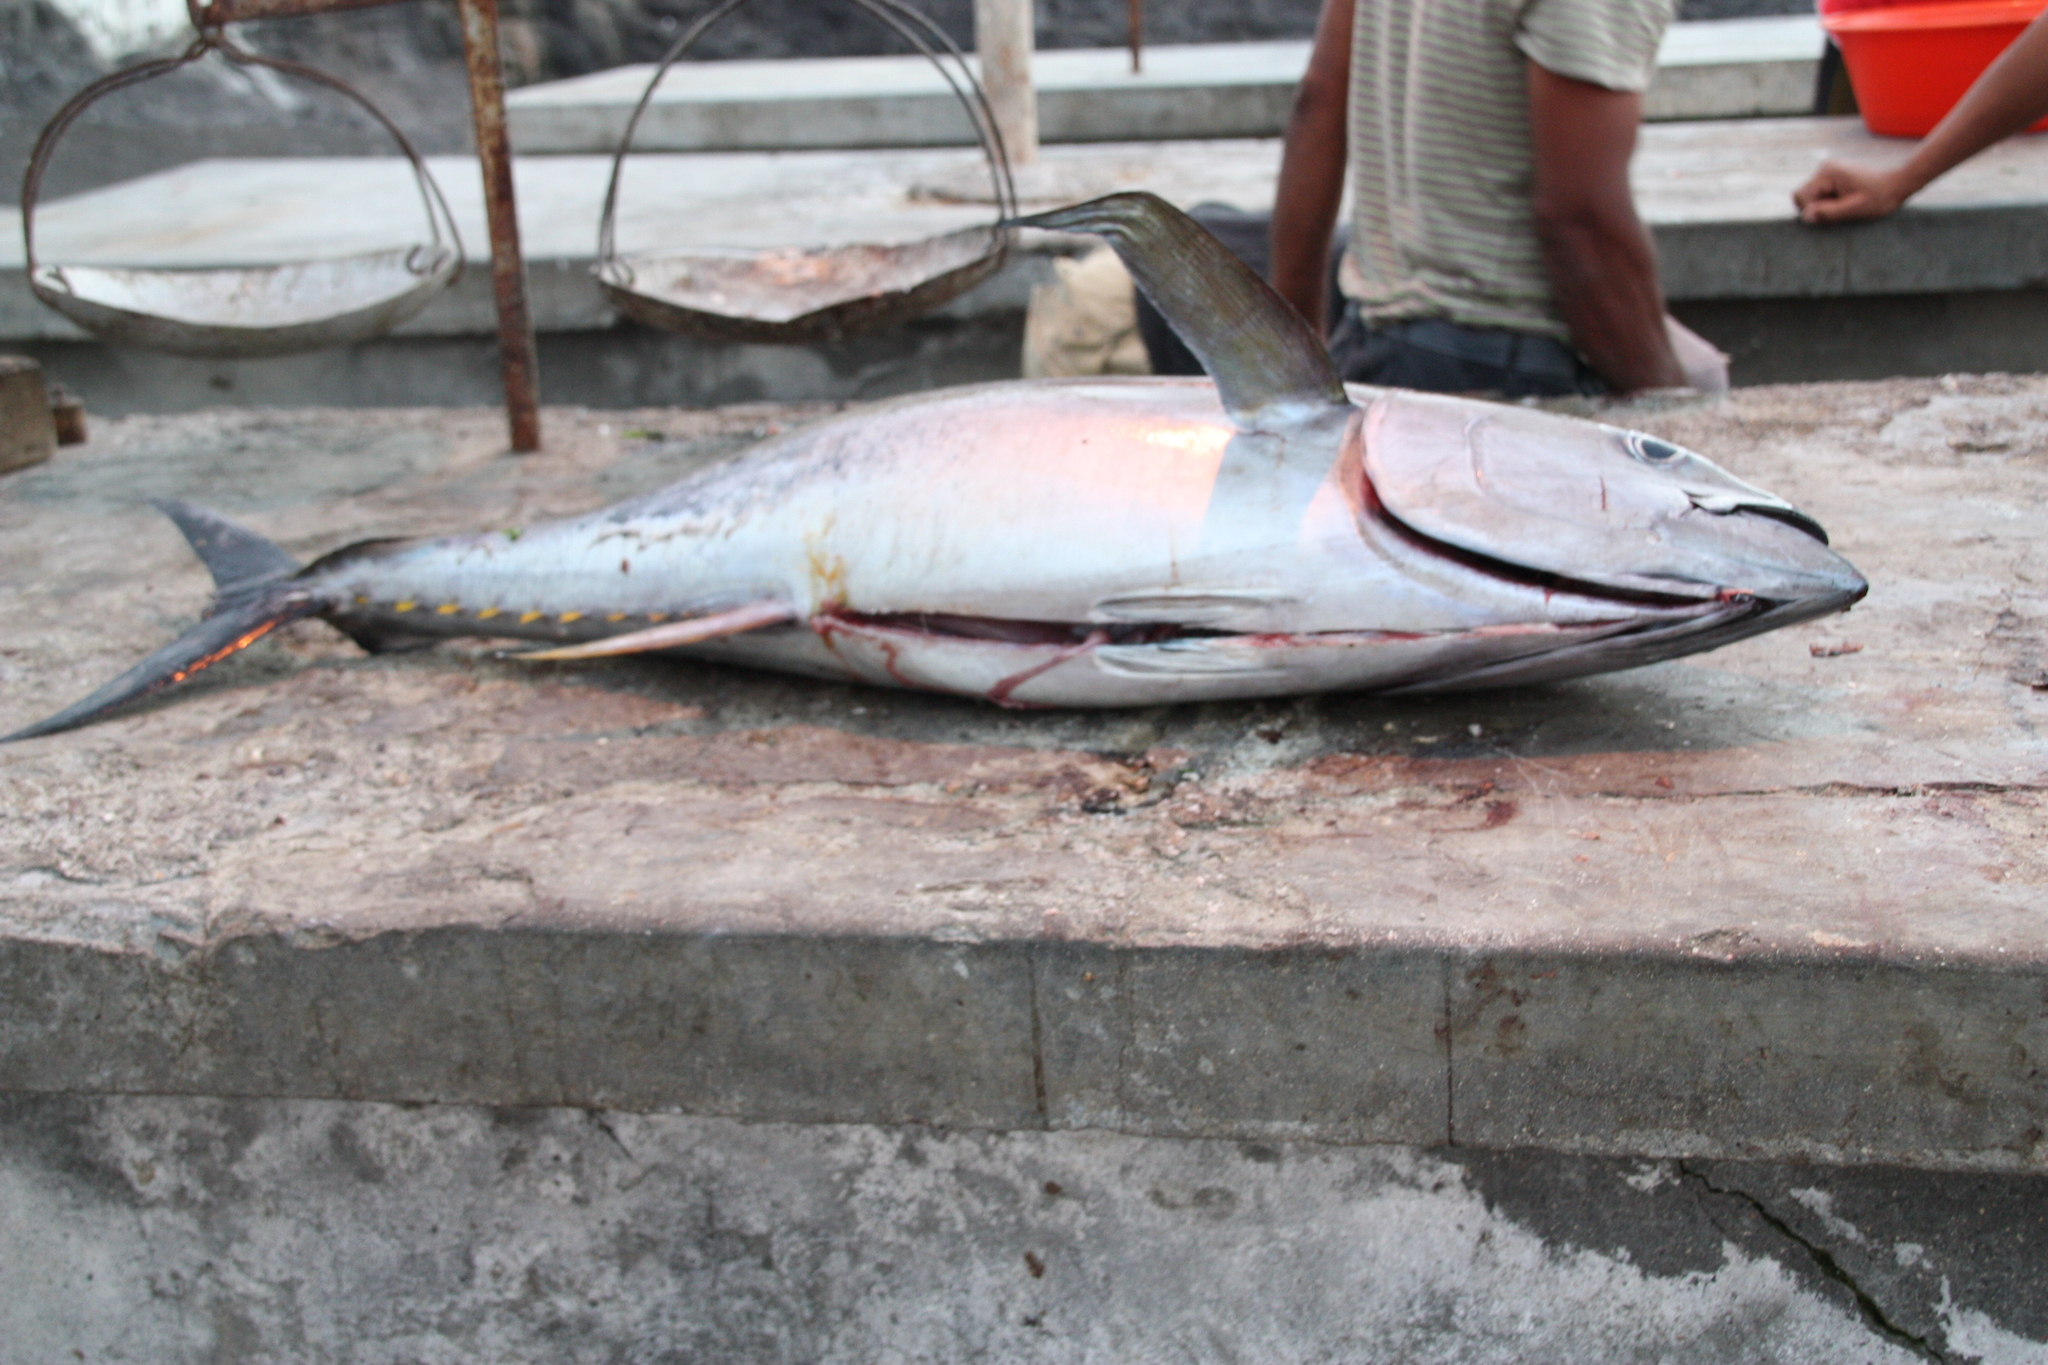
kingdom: Animalia
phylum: Chordata
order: Perciformes
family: Scombridae
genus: Thunnus
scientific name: Thunnus albacares
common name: Yellowfin tuna
